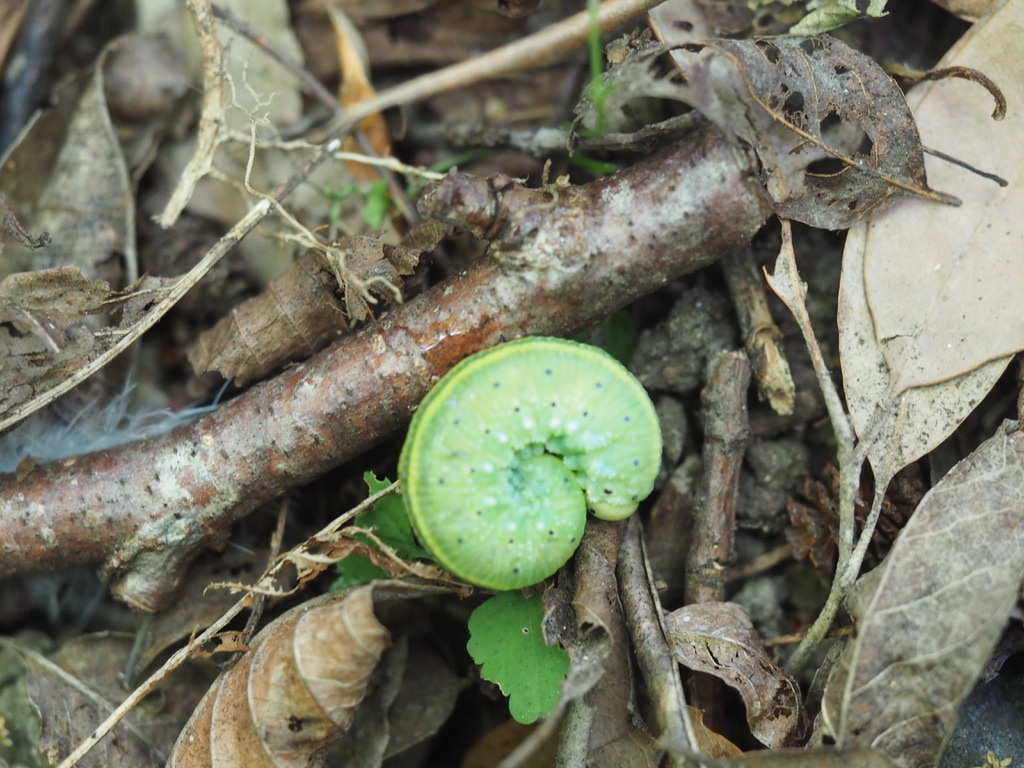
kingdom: Animalia
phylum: Arthropoda
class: Insecta
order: Hymenoptera
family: Cimbicidae
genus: Cimbex
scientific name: Cimbex connatus
